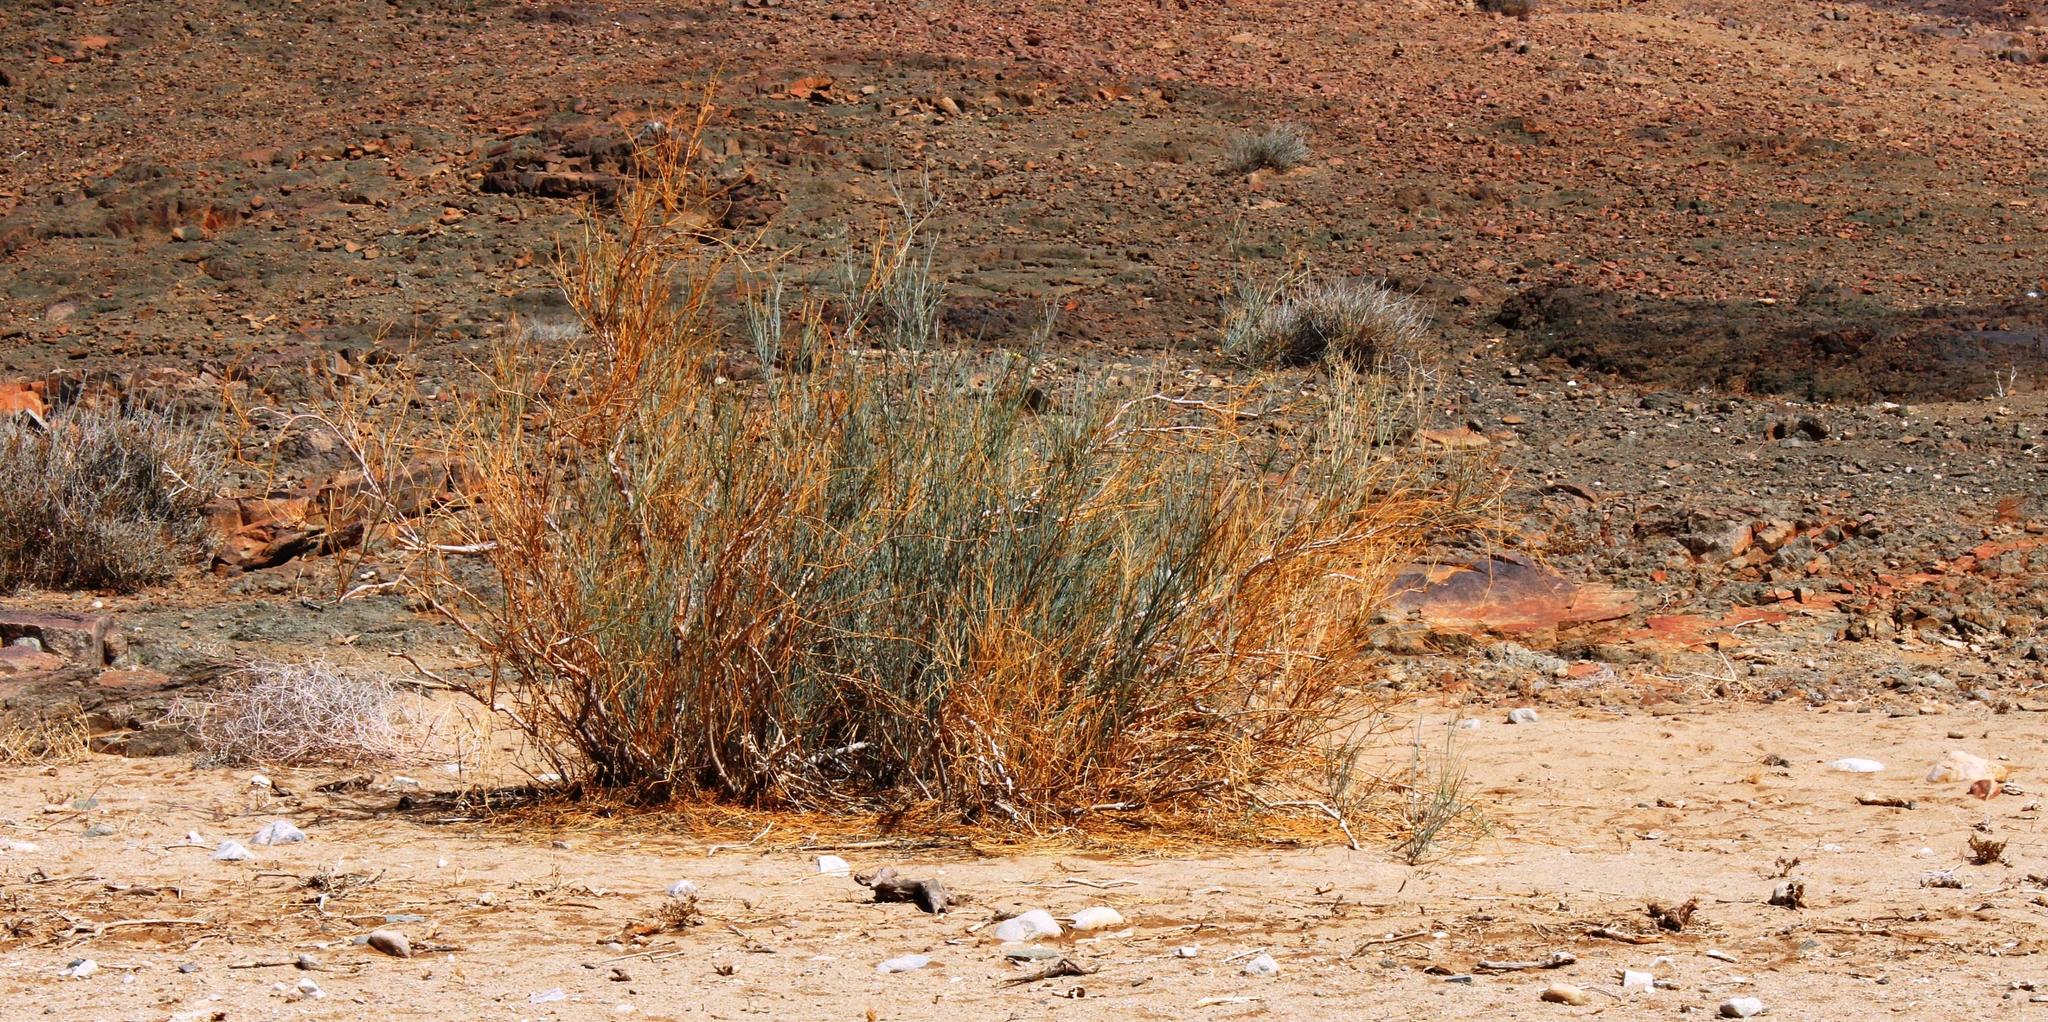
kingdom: Plantae
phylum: Tracheophyta
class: Magnoliopsida
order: Zygophyllales
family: Zygophyllaceae
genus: Sisyndite
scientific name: Sisyndite spartea
